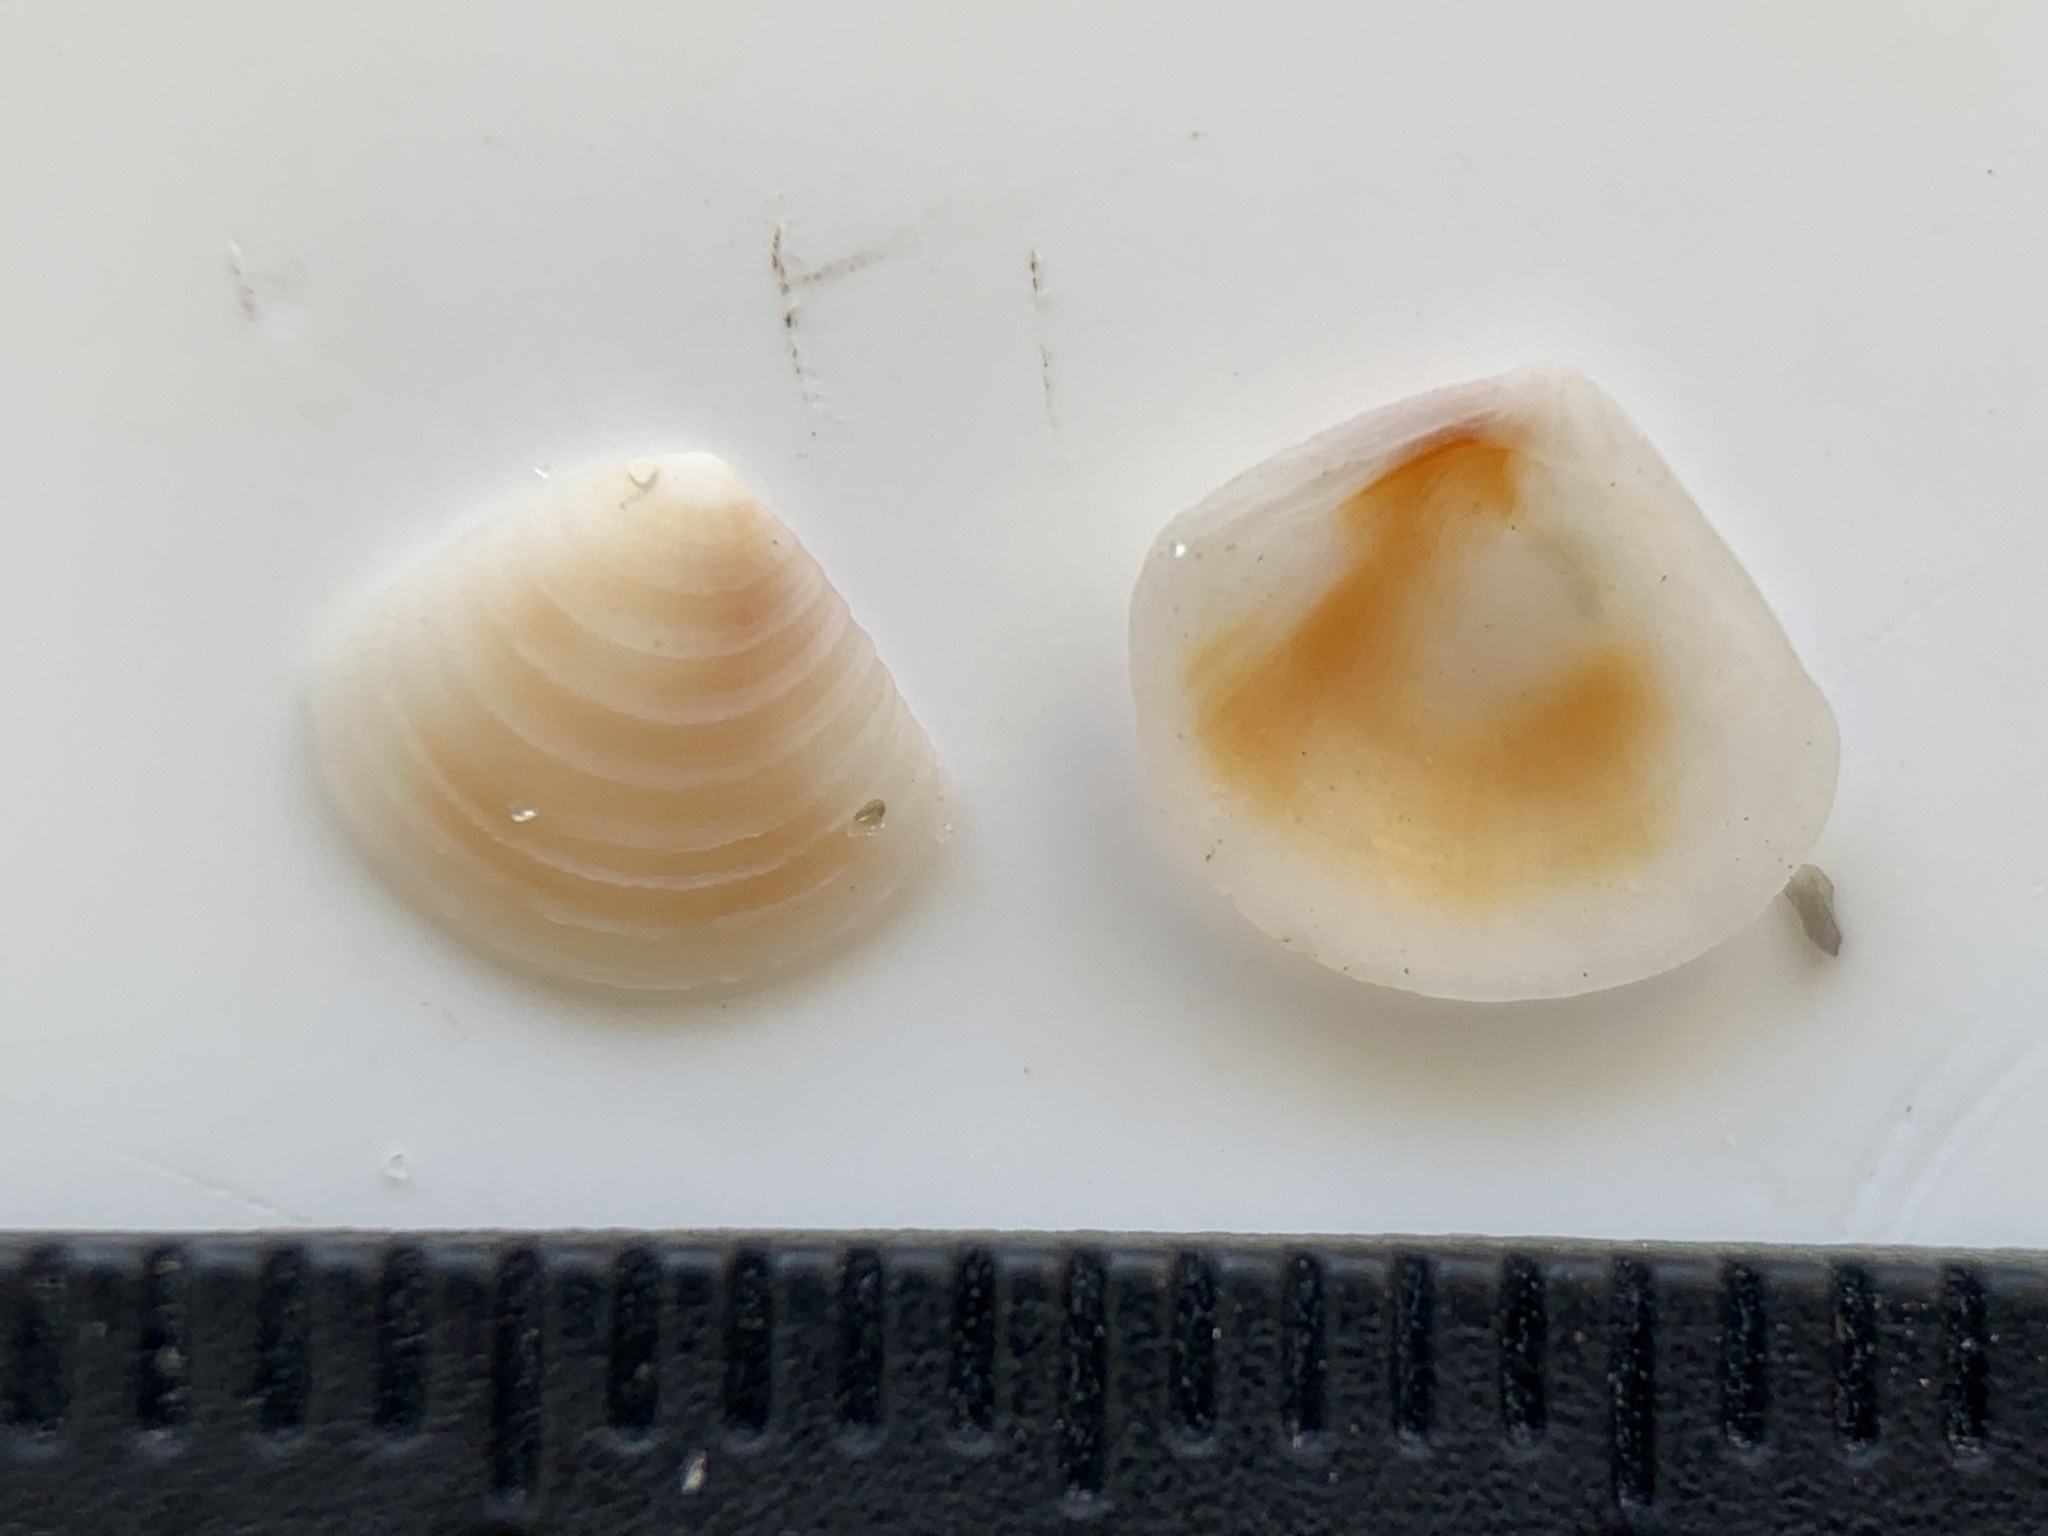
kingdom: Animalia
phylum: Mollusca
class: Bivalvia
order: Carditida
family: Crassatellidae
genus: Crassinella
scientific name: Crassinella lunulata
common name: Lunate crassinella
